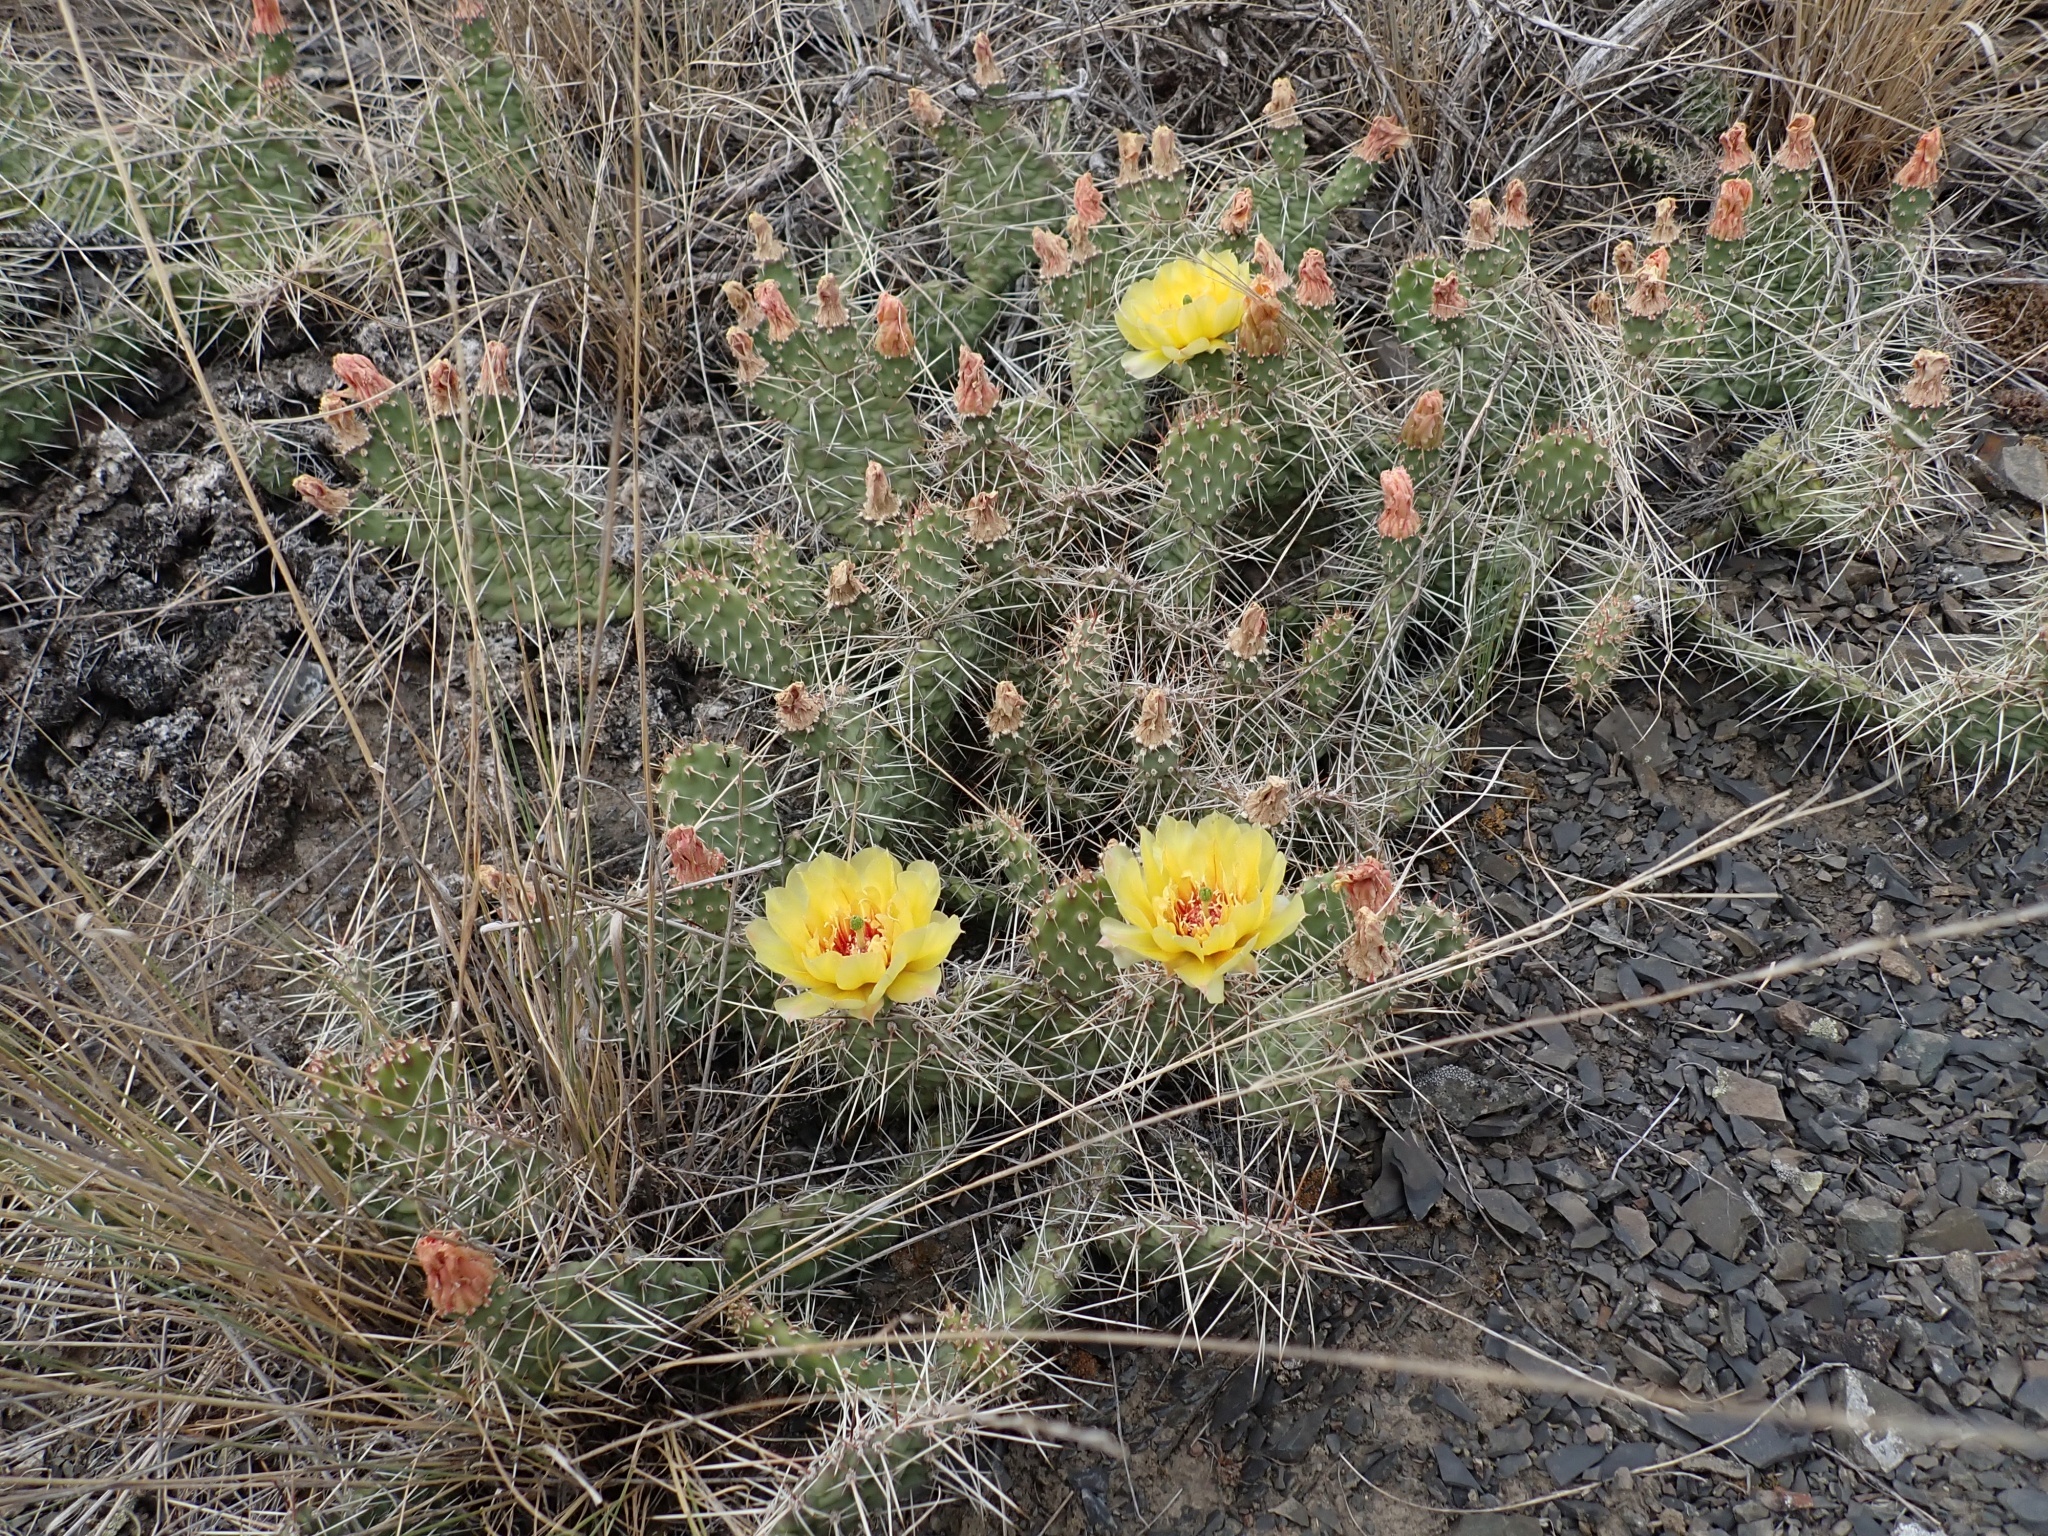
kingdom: Plantae
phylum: Tracheophyta
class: Magnoliopsida
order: Caryophyllales
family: Cactaceae
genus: Opuntia
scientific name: Opuntia columbiana
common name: Columbia prickly-pear
